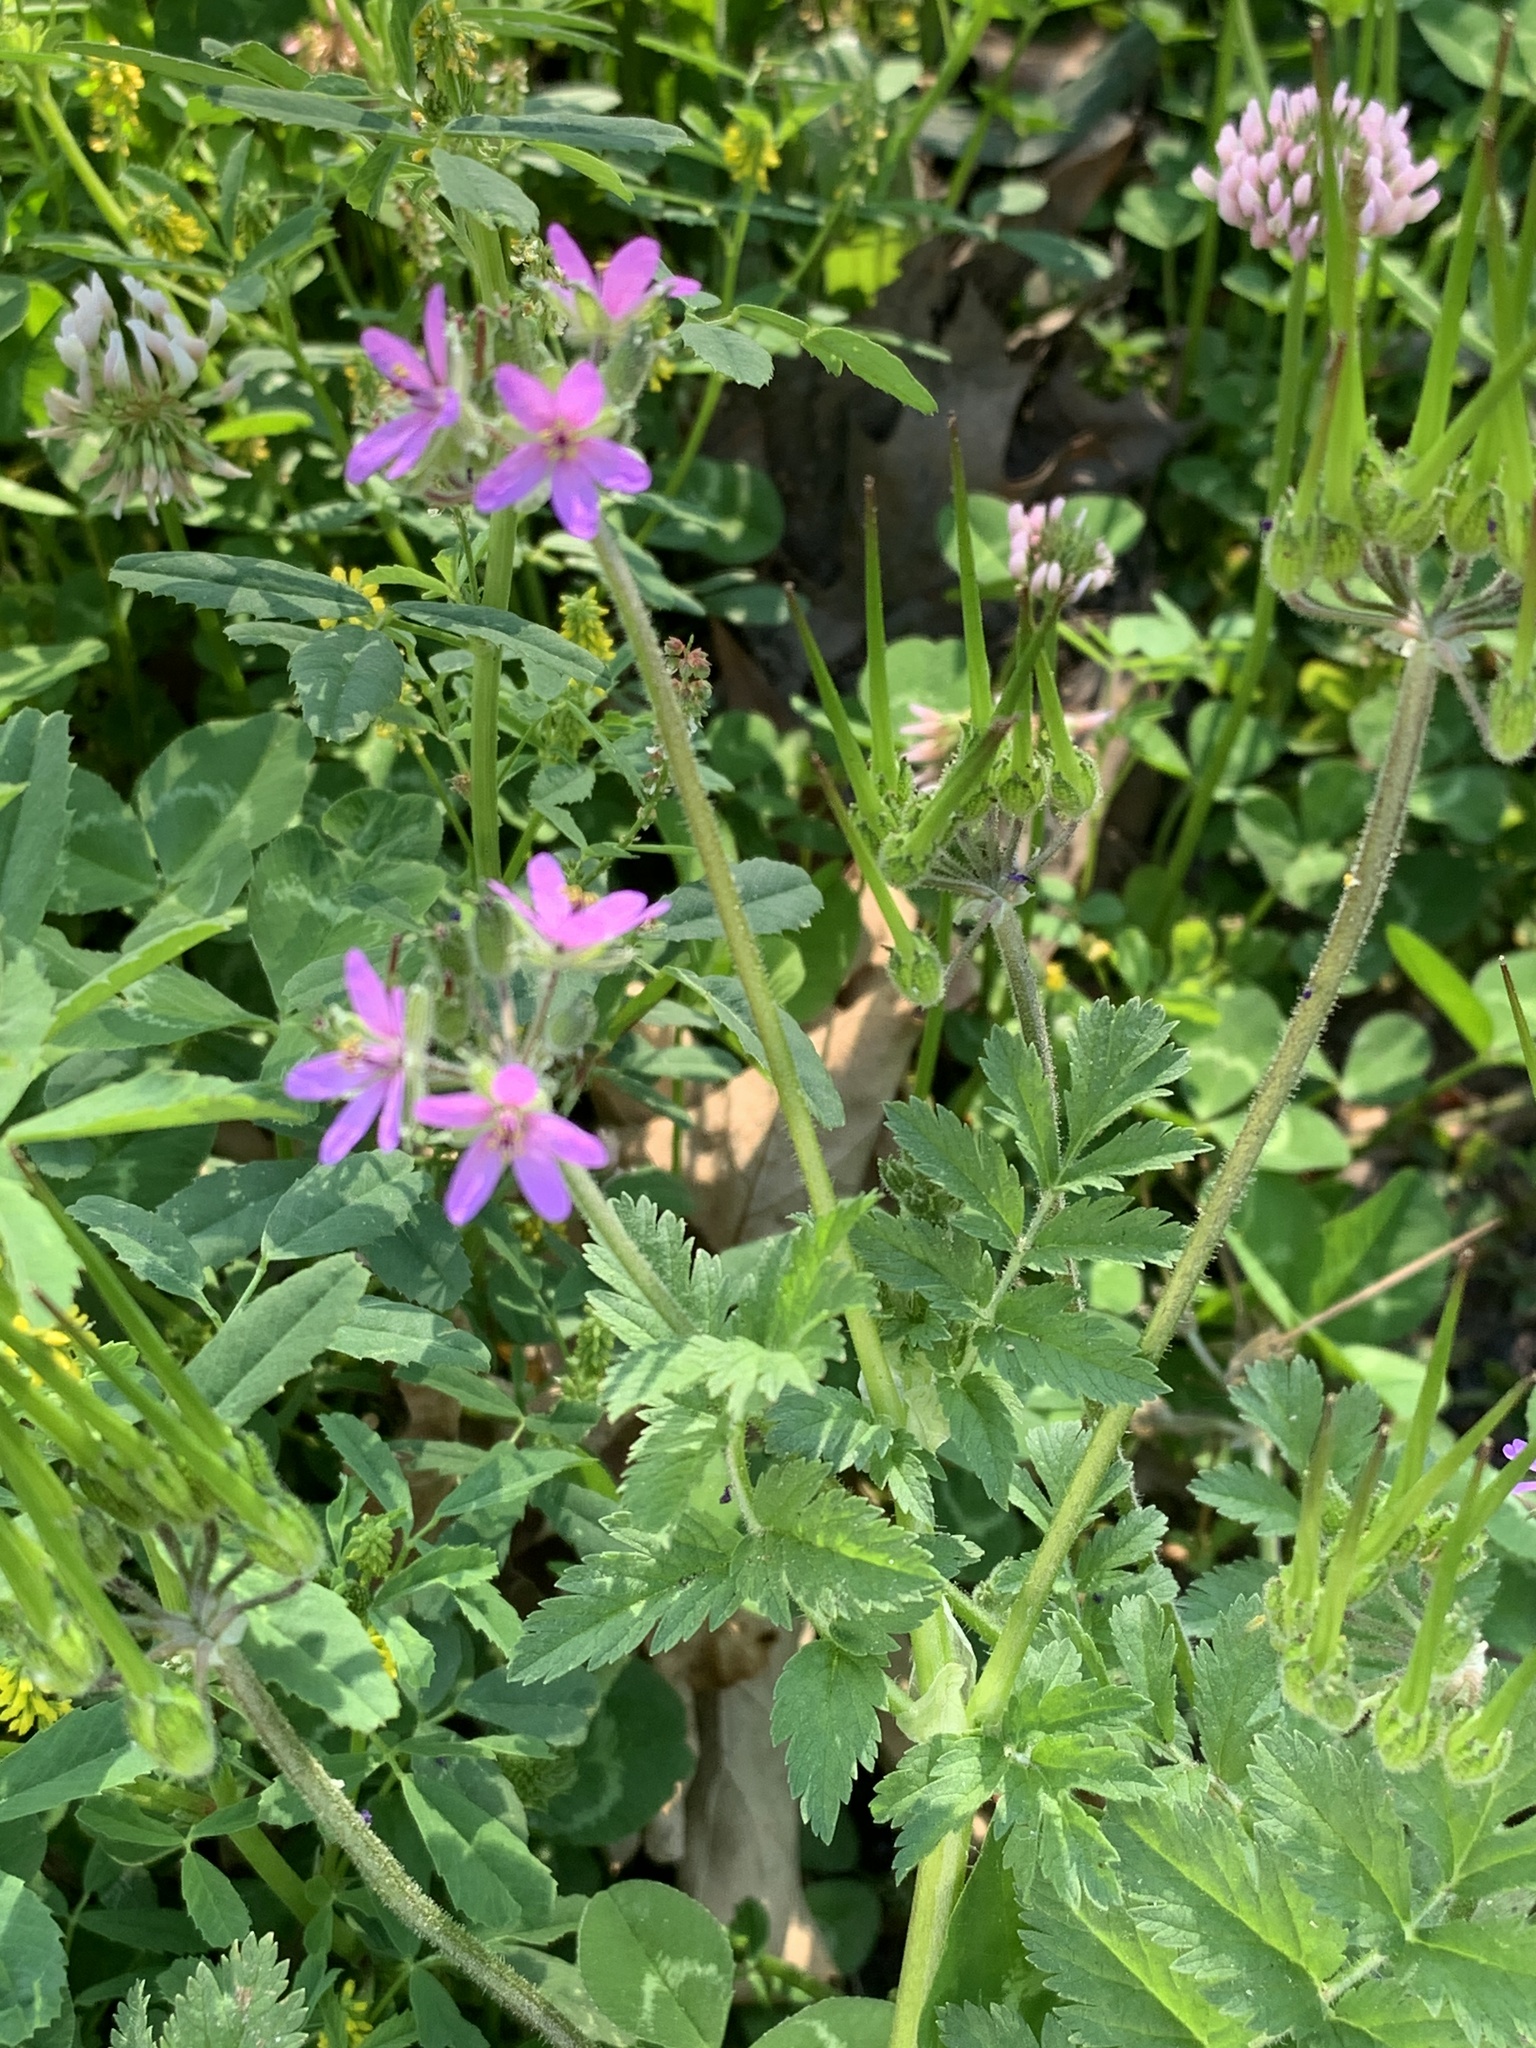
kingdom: Plantae
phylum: Tracheophyta
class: Magnoliopsida
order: Geraniales
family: Geraniaceae
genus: Erodium
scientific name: Erodium moschatum
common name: Musk stork's-bill
